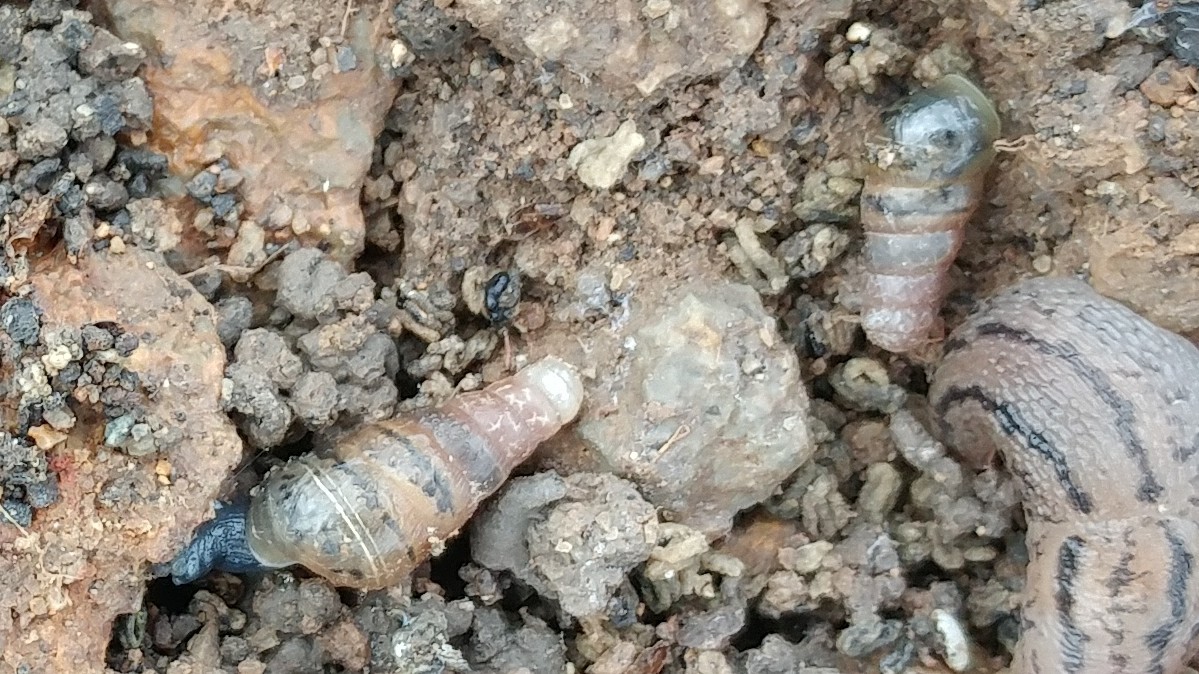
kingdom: Animalia
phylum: Mollusca
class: Gastropoda
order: Stylommatophora
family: Achatinidae
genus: Rumina
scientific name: Rumina decollata
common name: Decollate snail
